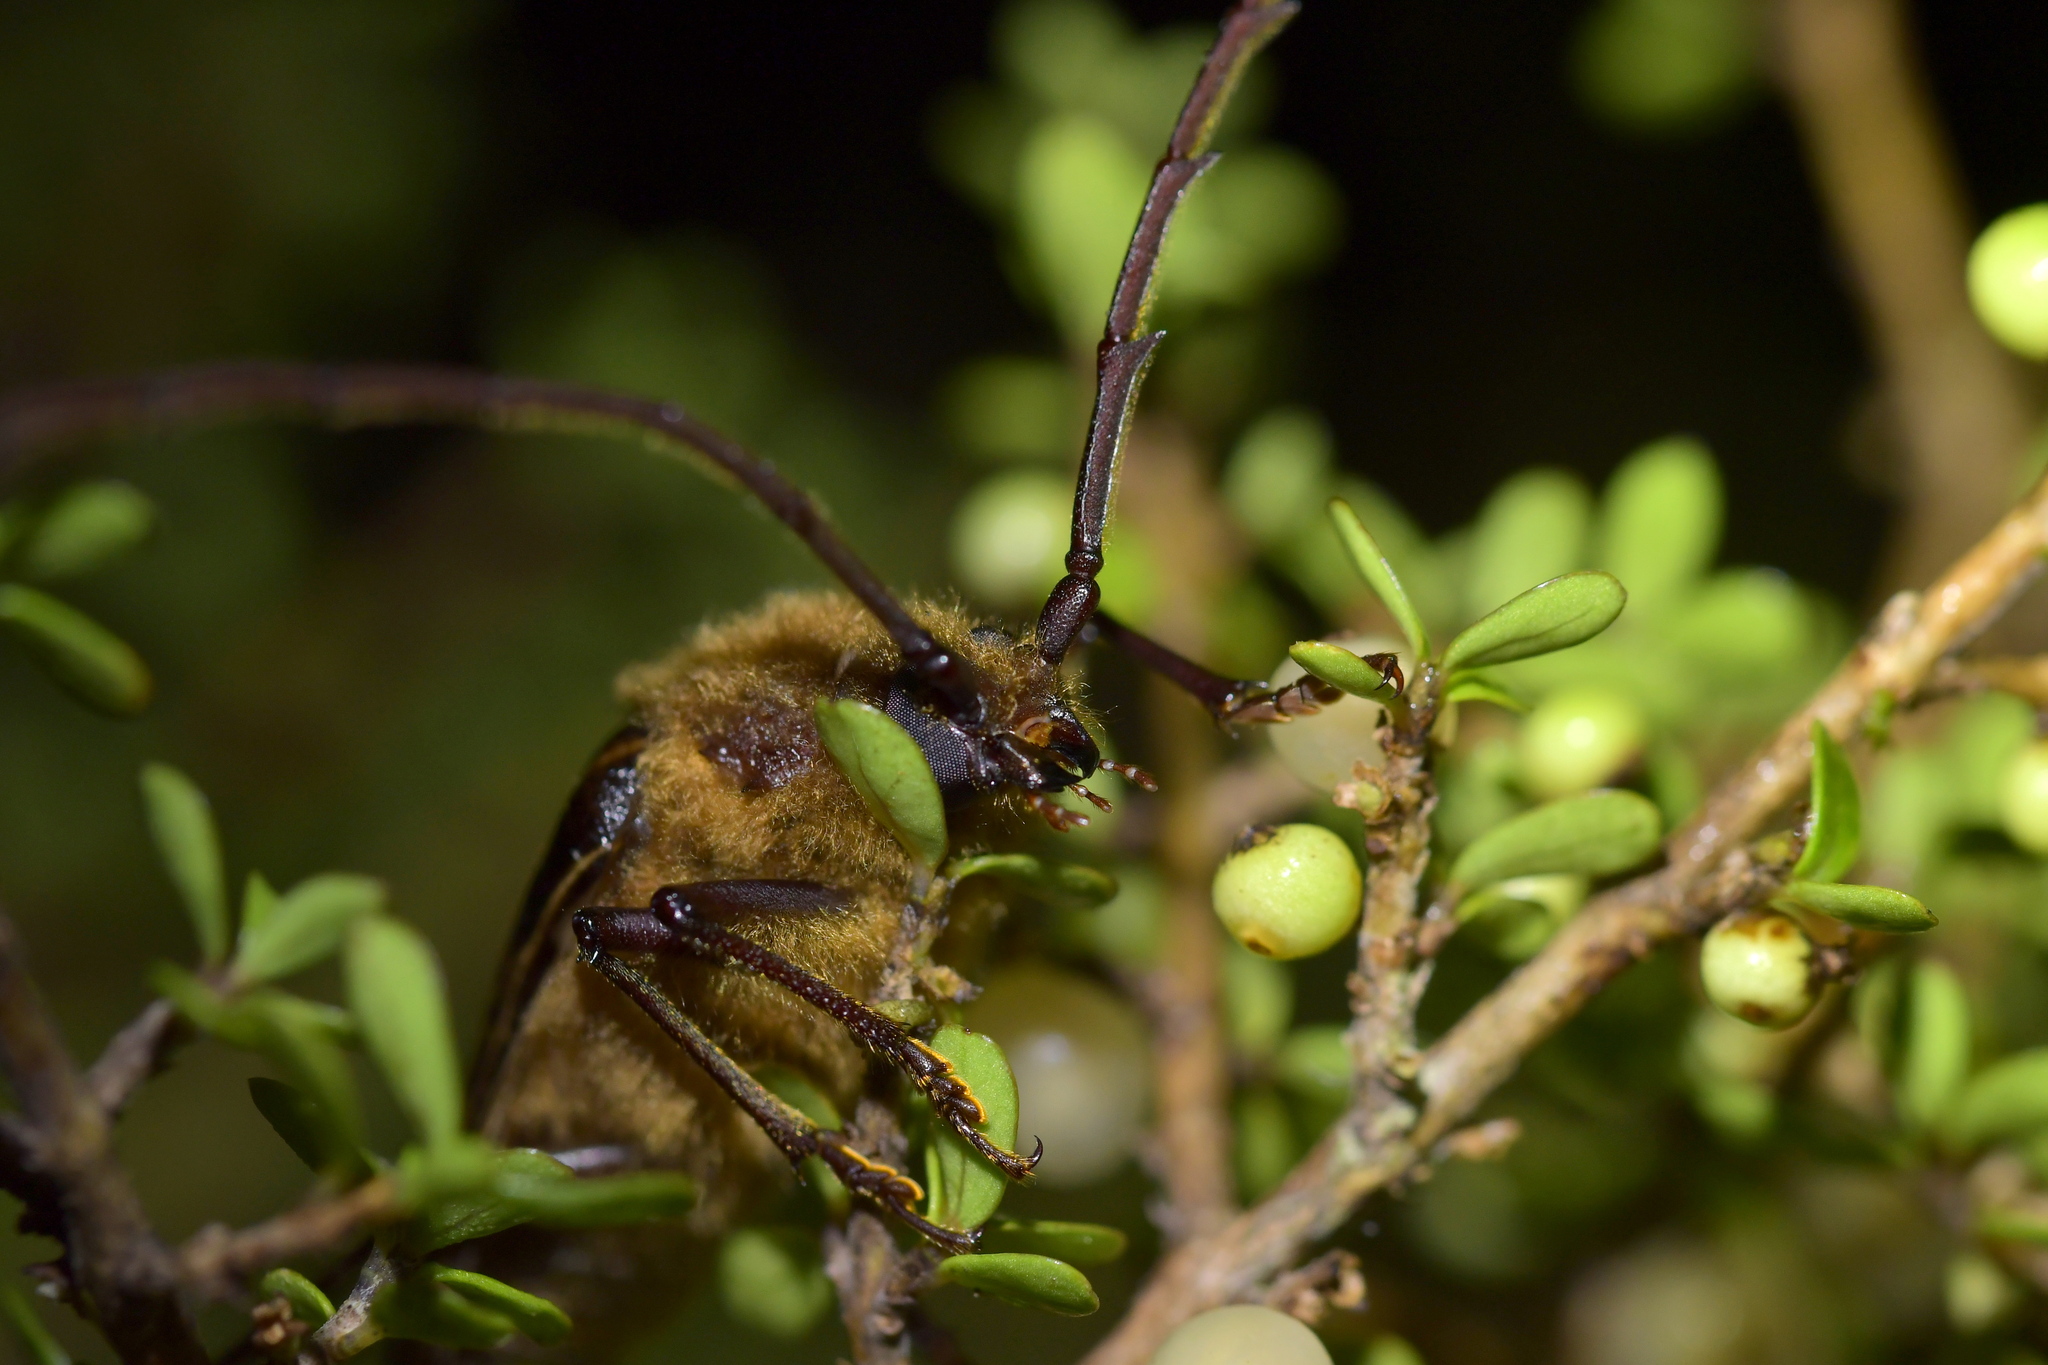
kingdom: Animalia
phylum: Arthropoda
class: Insecta
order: Coleoptera
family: Cerambycidae
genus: Prionoplus
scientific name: Prionoplus reticularis
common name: Huhu beetle
